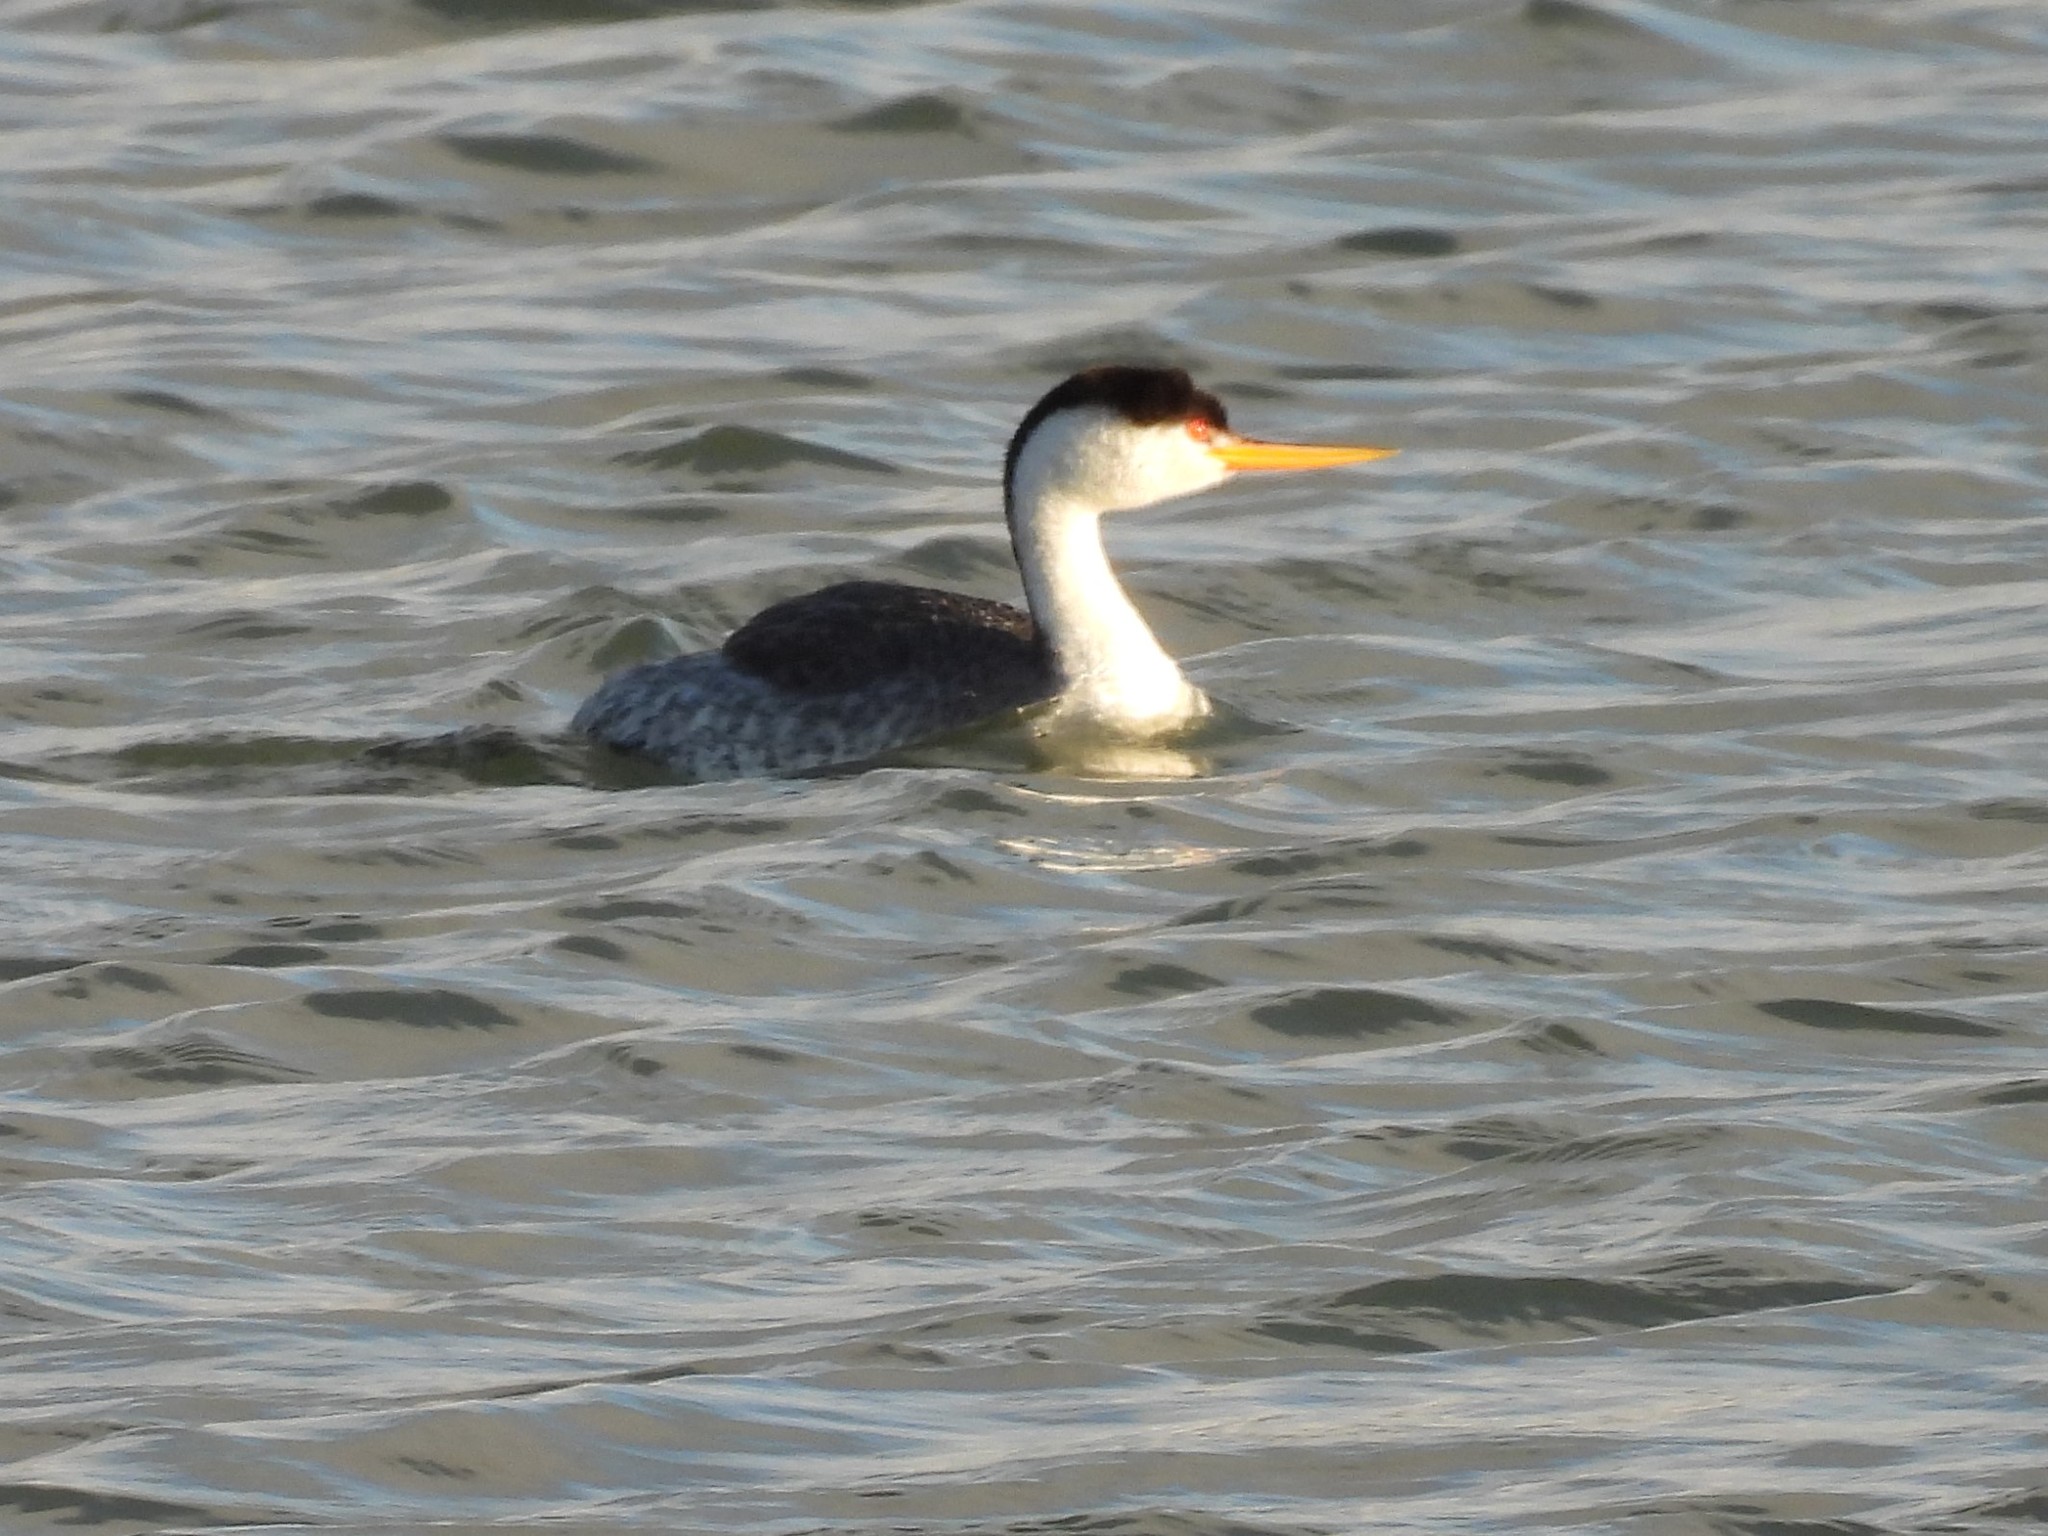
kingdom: Animalia
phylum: Chordata
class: Aves
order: Podicipediformes
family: Podicipedidae
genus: Aechmophorus
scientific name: Aechmophorus clarkii
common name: Clark's grebe
